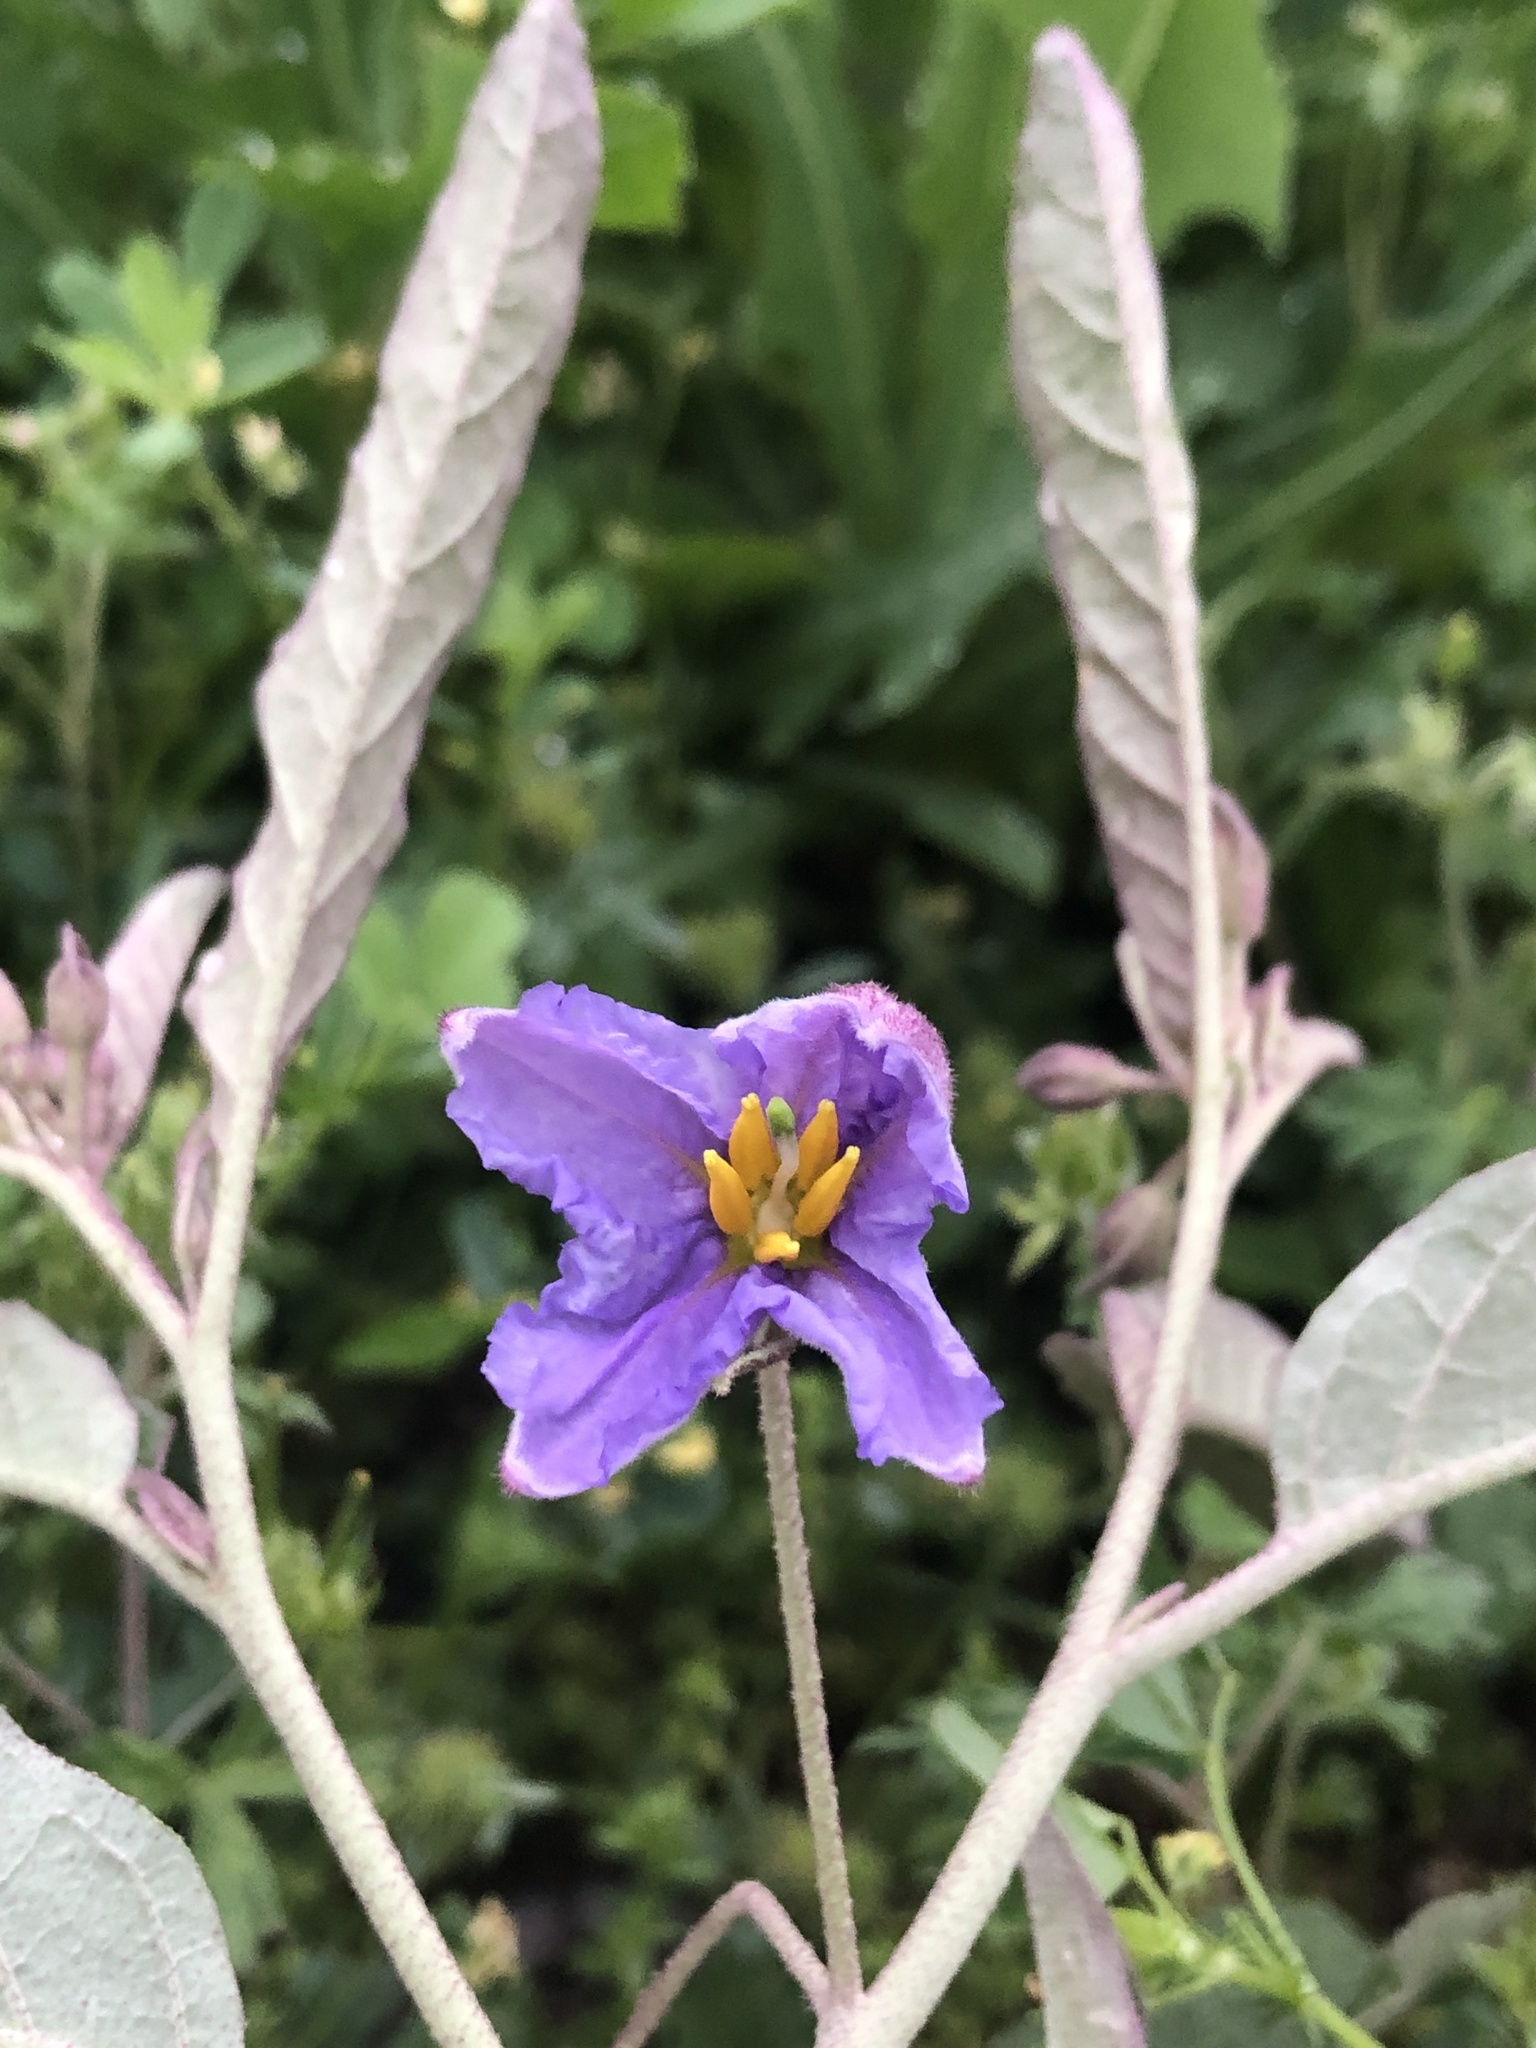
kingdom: Plantae
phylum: Tracheophyta
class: Magnoliopsida
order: Solanales
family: Solanaceae
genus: Solanum
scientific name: Solanum elaeagnifolium
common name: Silverleaf nightshade
